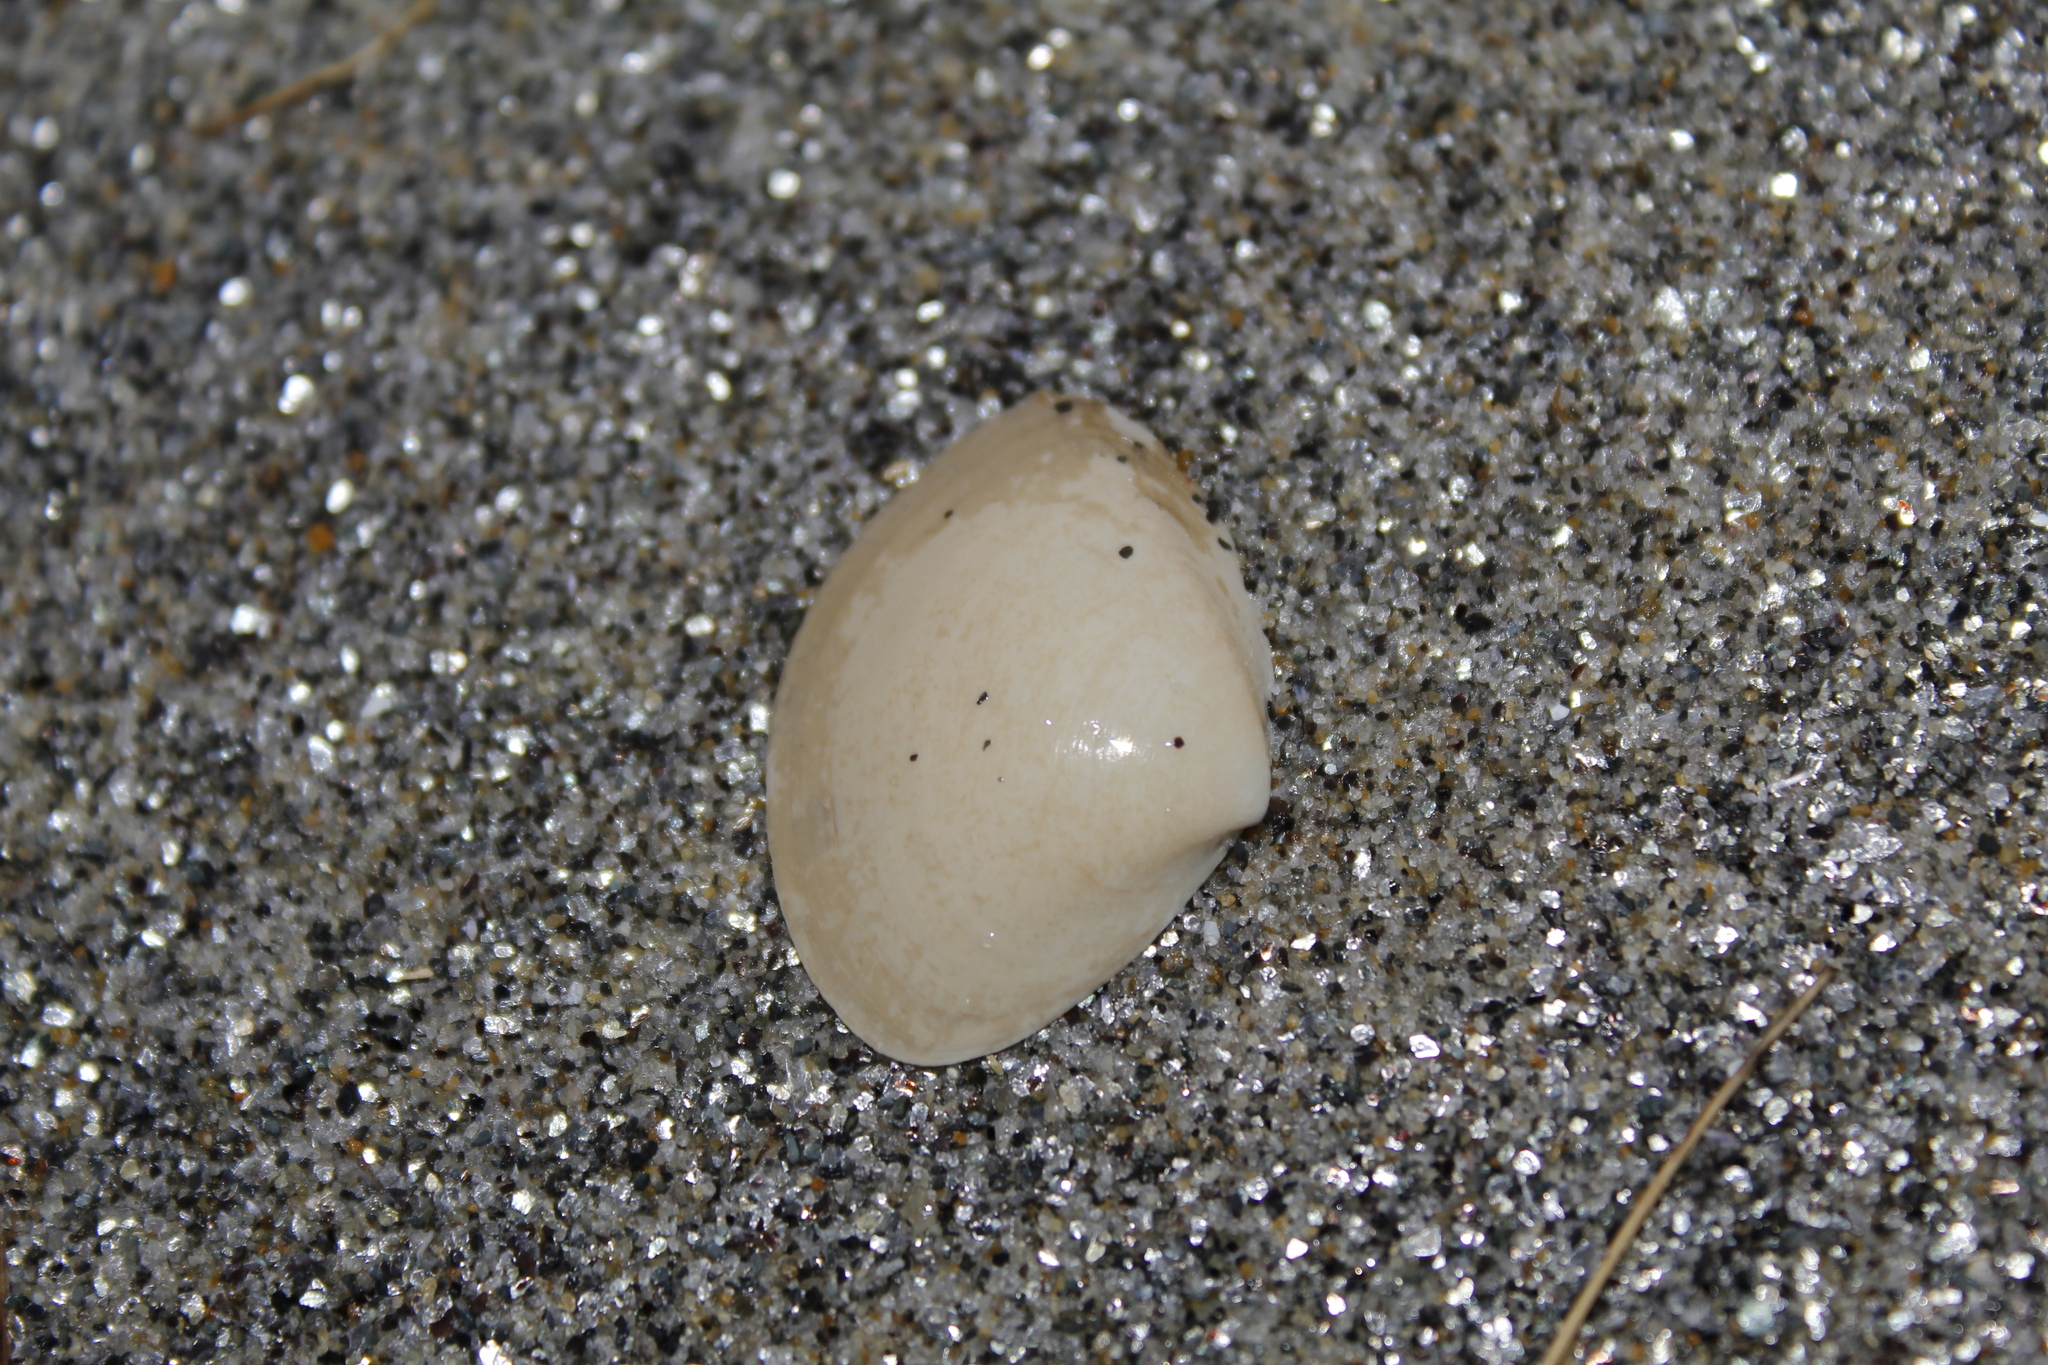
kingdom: Animalia
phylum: Mollusca
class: Bivalvia
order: Venerida
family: Mactridae
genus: Spisula
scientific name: Spisula solidissima
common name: Atlantic surf clam
